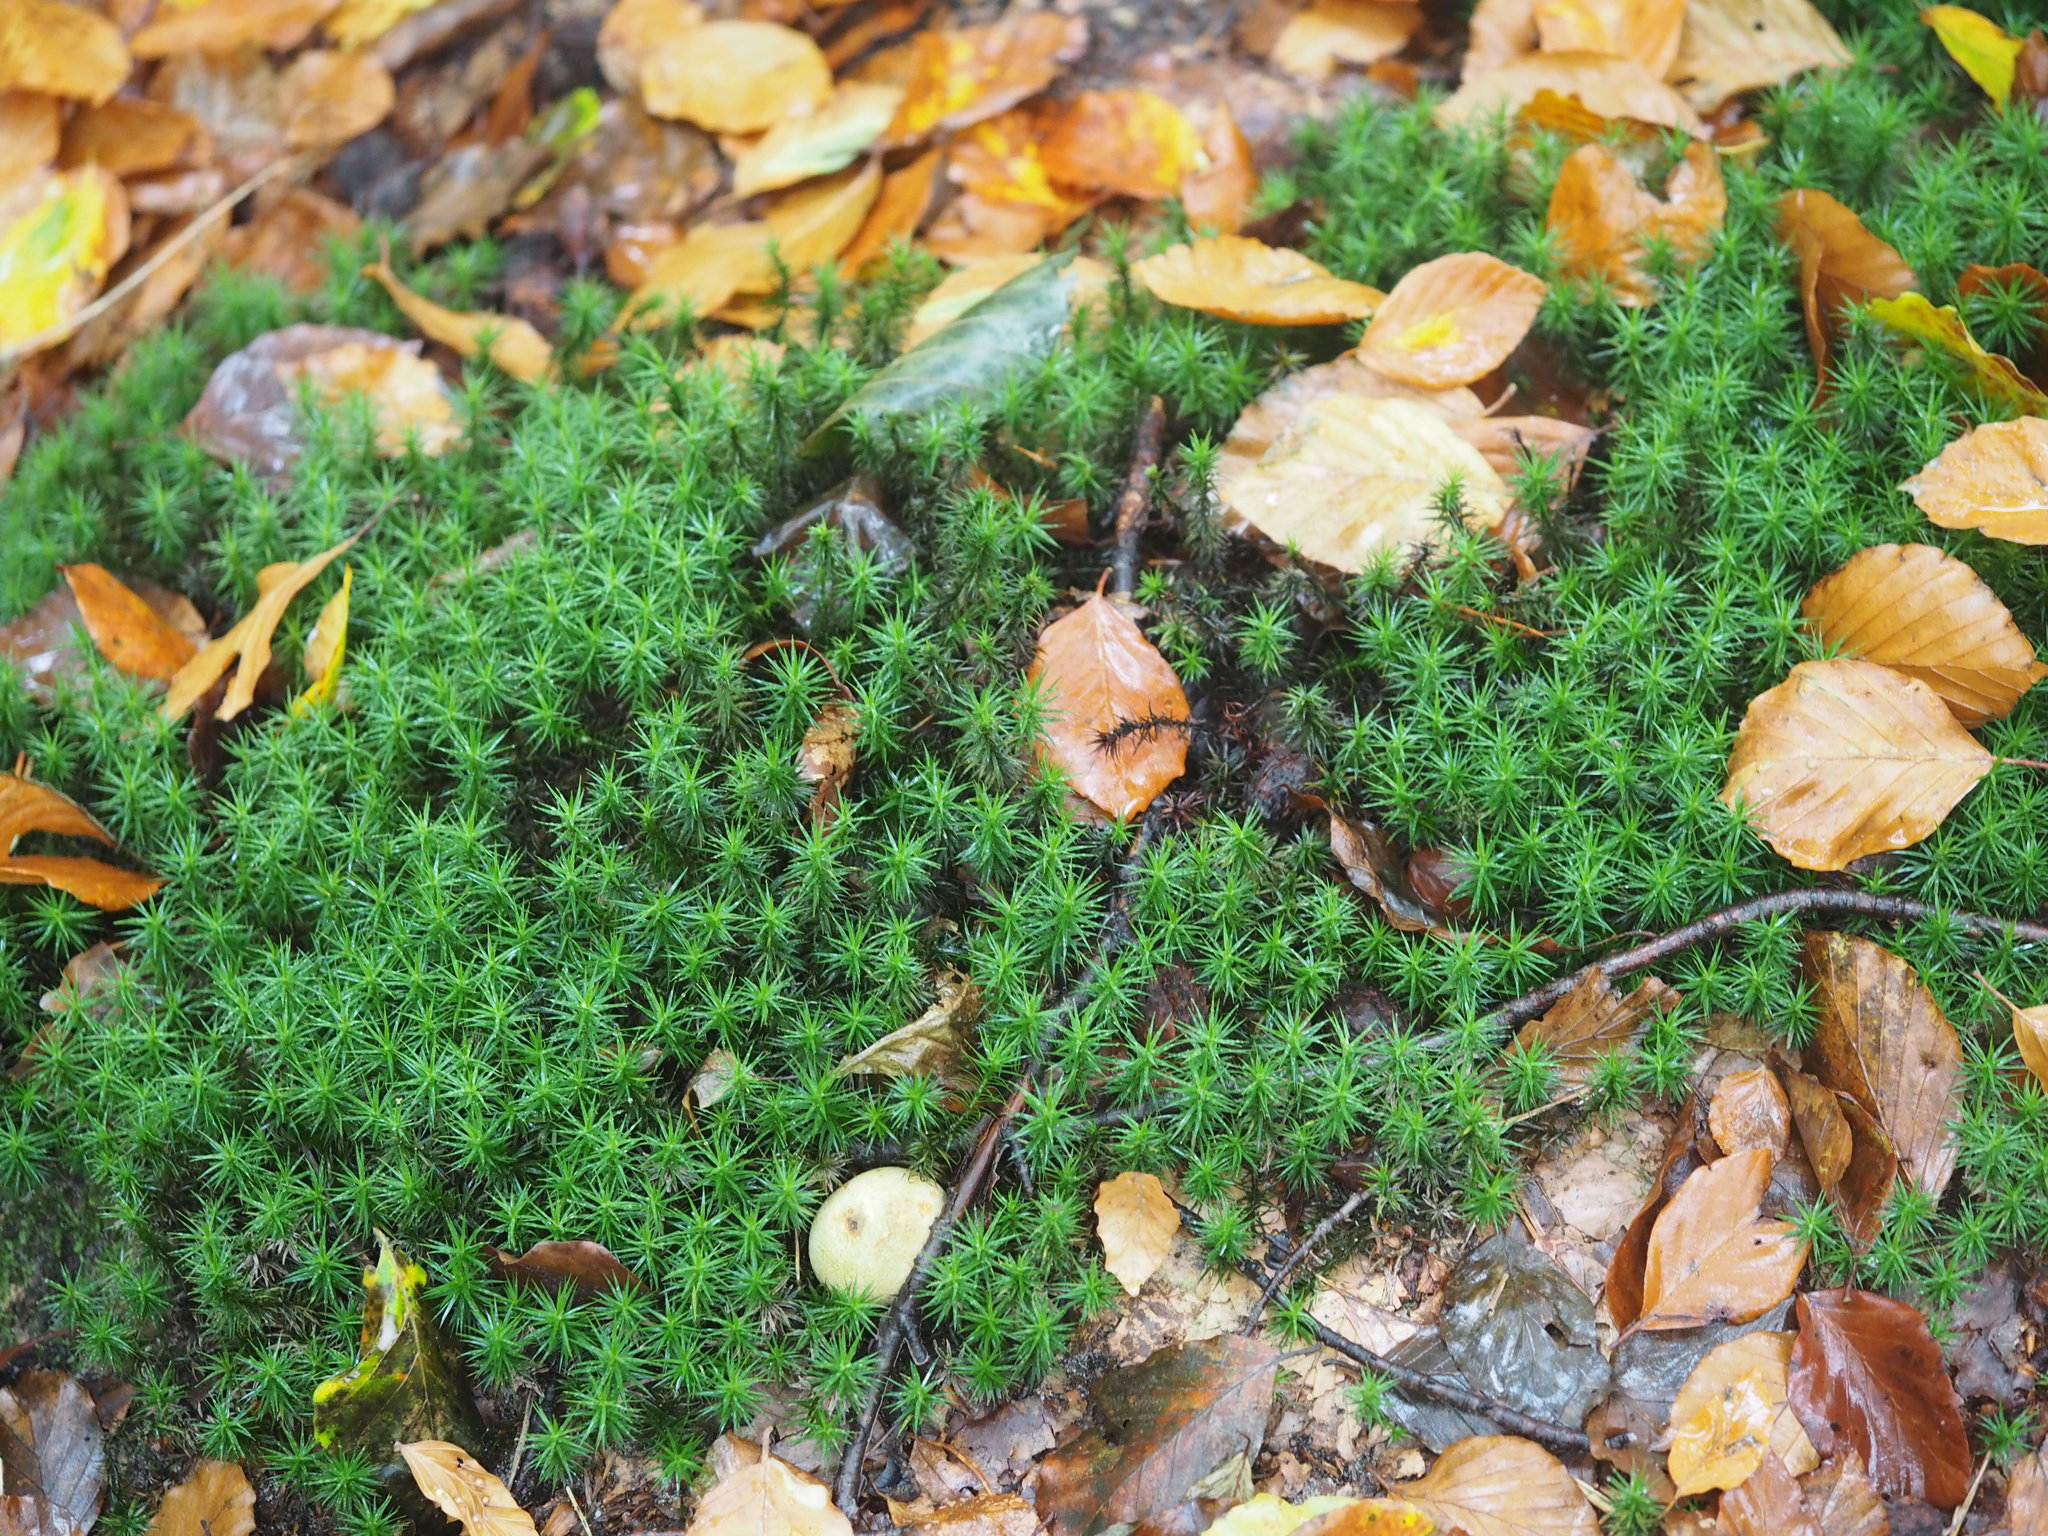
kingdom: Plantae
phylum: Bryophyta
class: Polytrichopsida
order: Polytrichales
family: Polytrichaceae
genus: Polytrichum
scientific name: Polytrichum formosum
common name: Bank haircap moss
